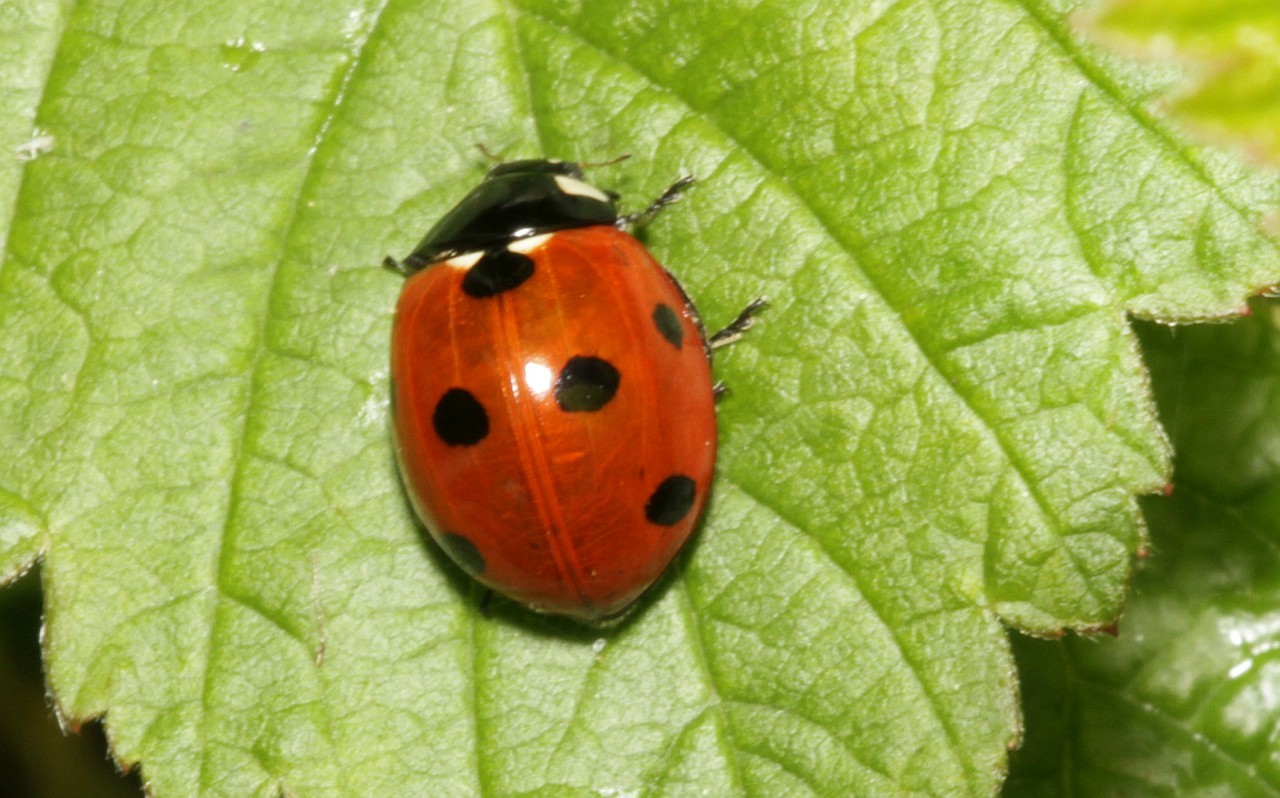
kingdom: Animalia
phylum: Arthropoda
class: Insecta
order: Coleoptera
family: Coccinellidae
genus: Coccinella
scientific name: Coccinella septempunctata
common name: Sevenspotted lady beetle
